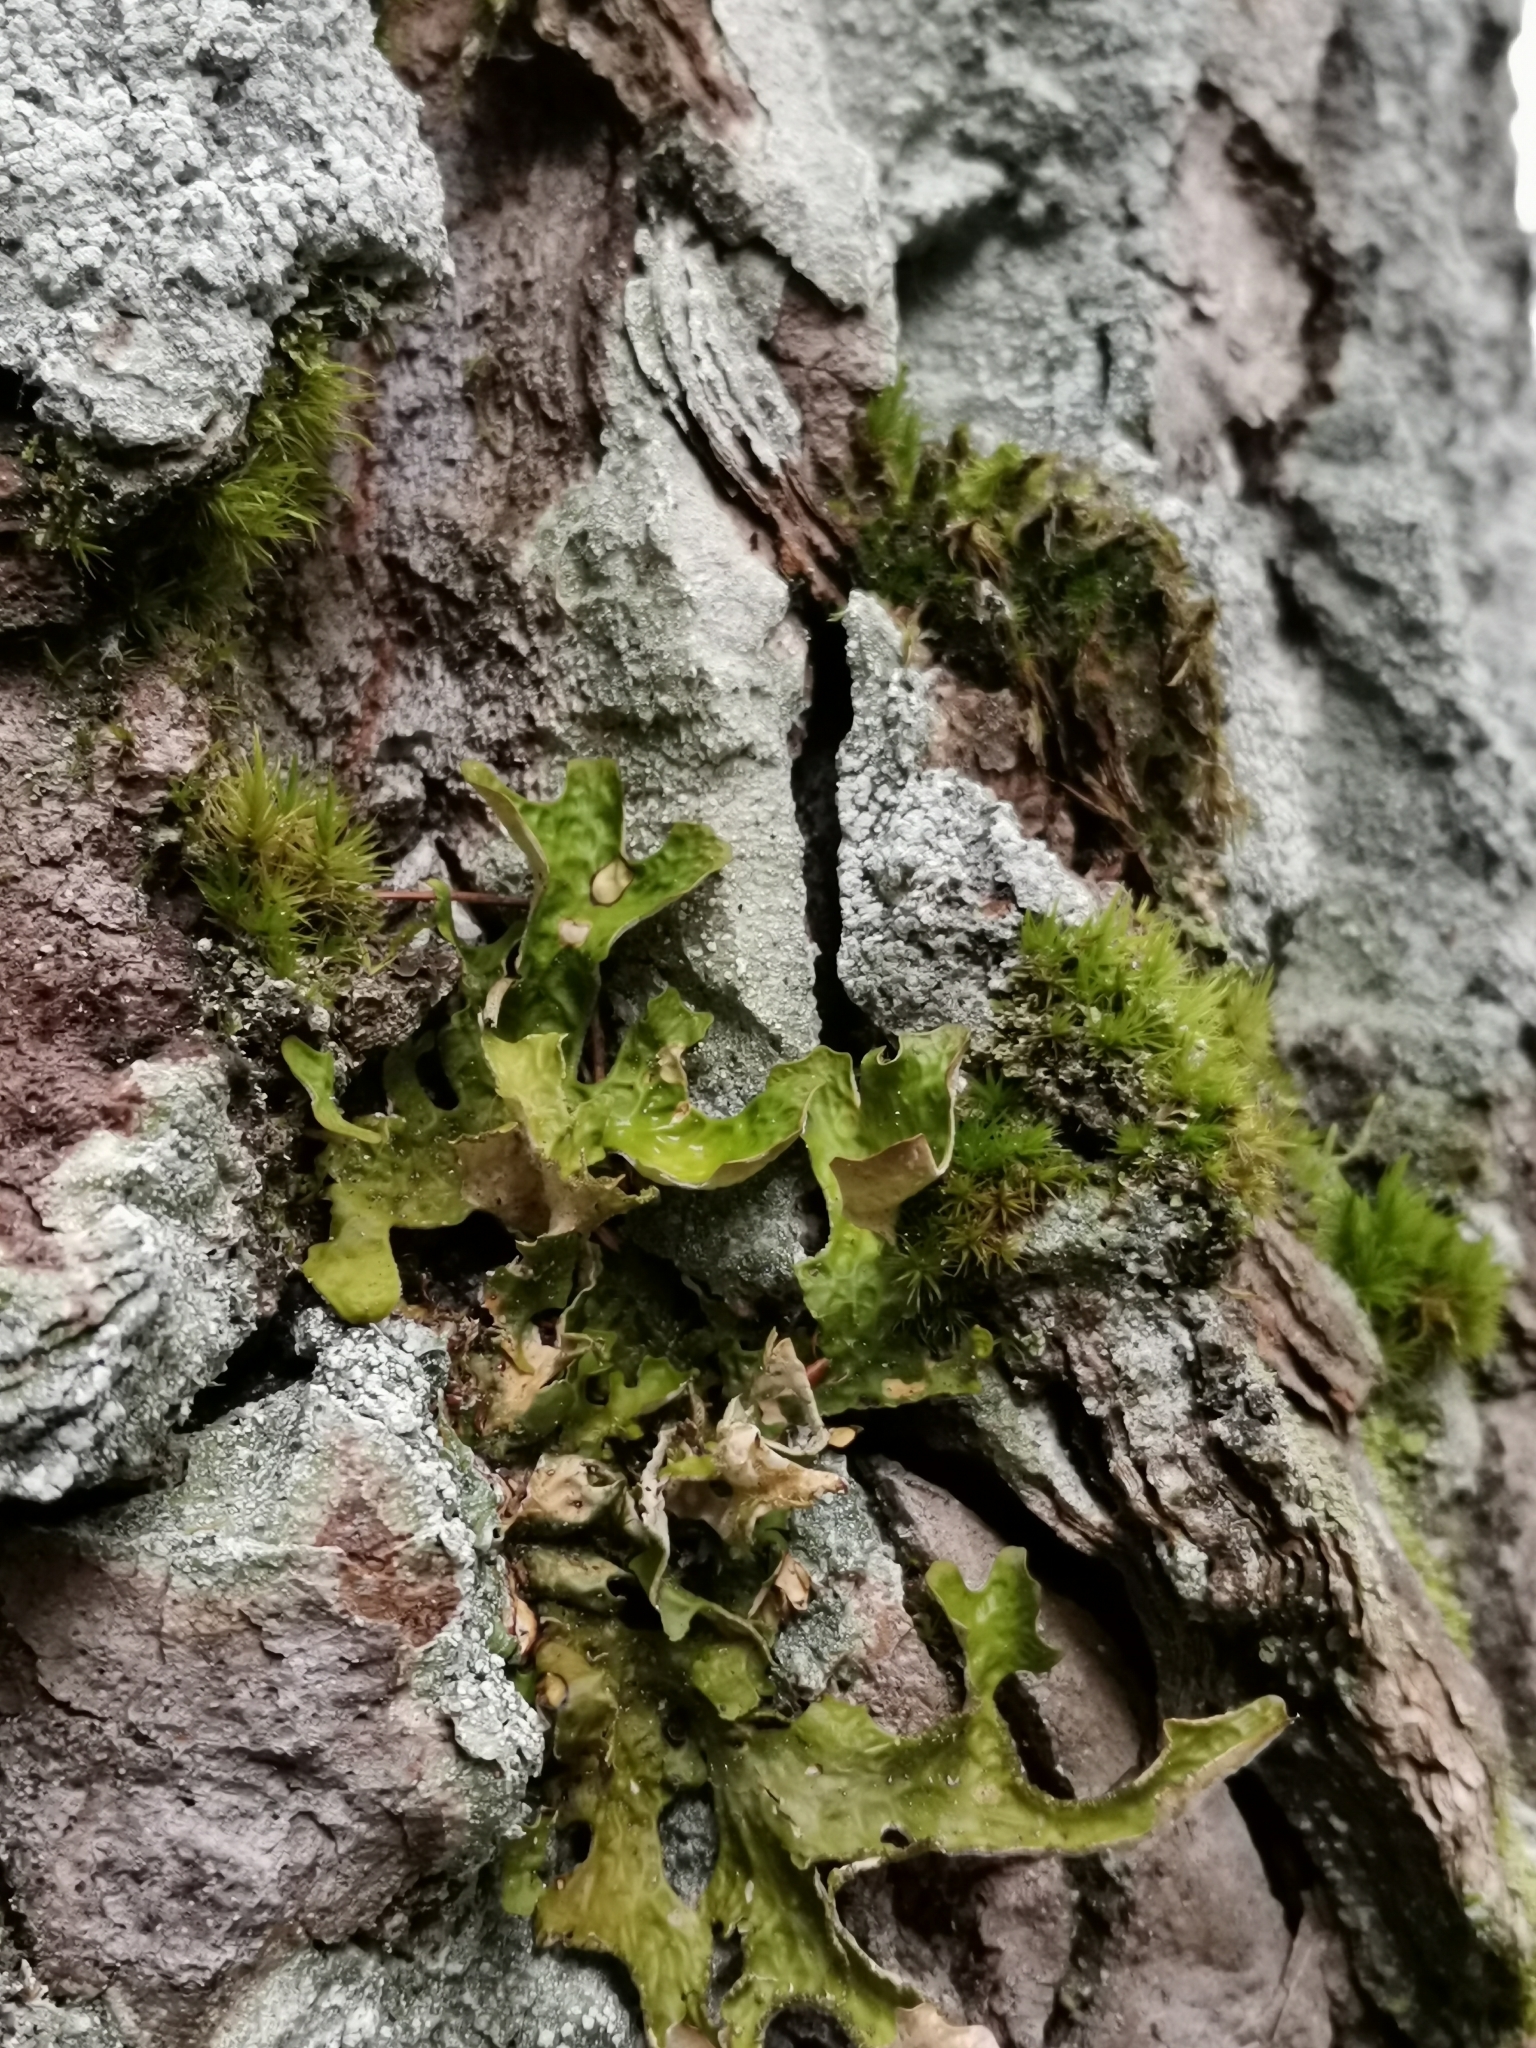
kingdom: Fungi
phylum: Ascomycota
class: Lecanoromycetes
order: Peltigerales
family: Lobariaceae
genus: Lobaria
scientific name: Lobaria pulmonaria
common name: Lungwort
